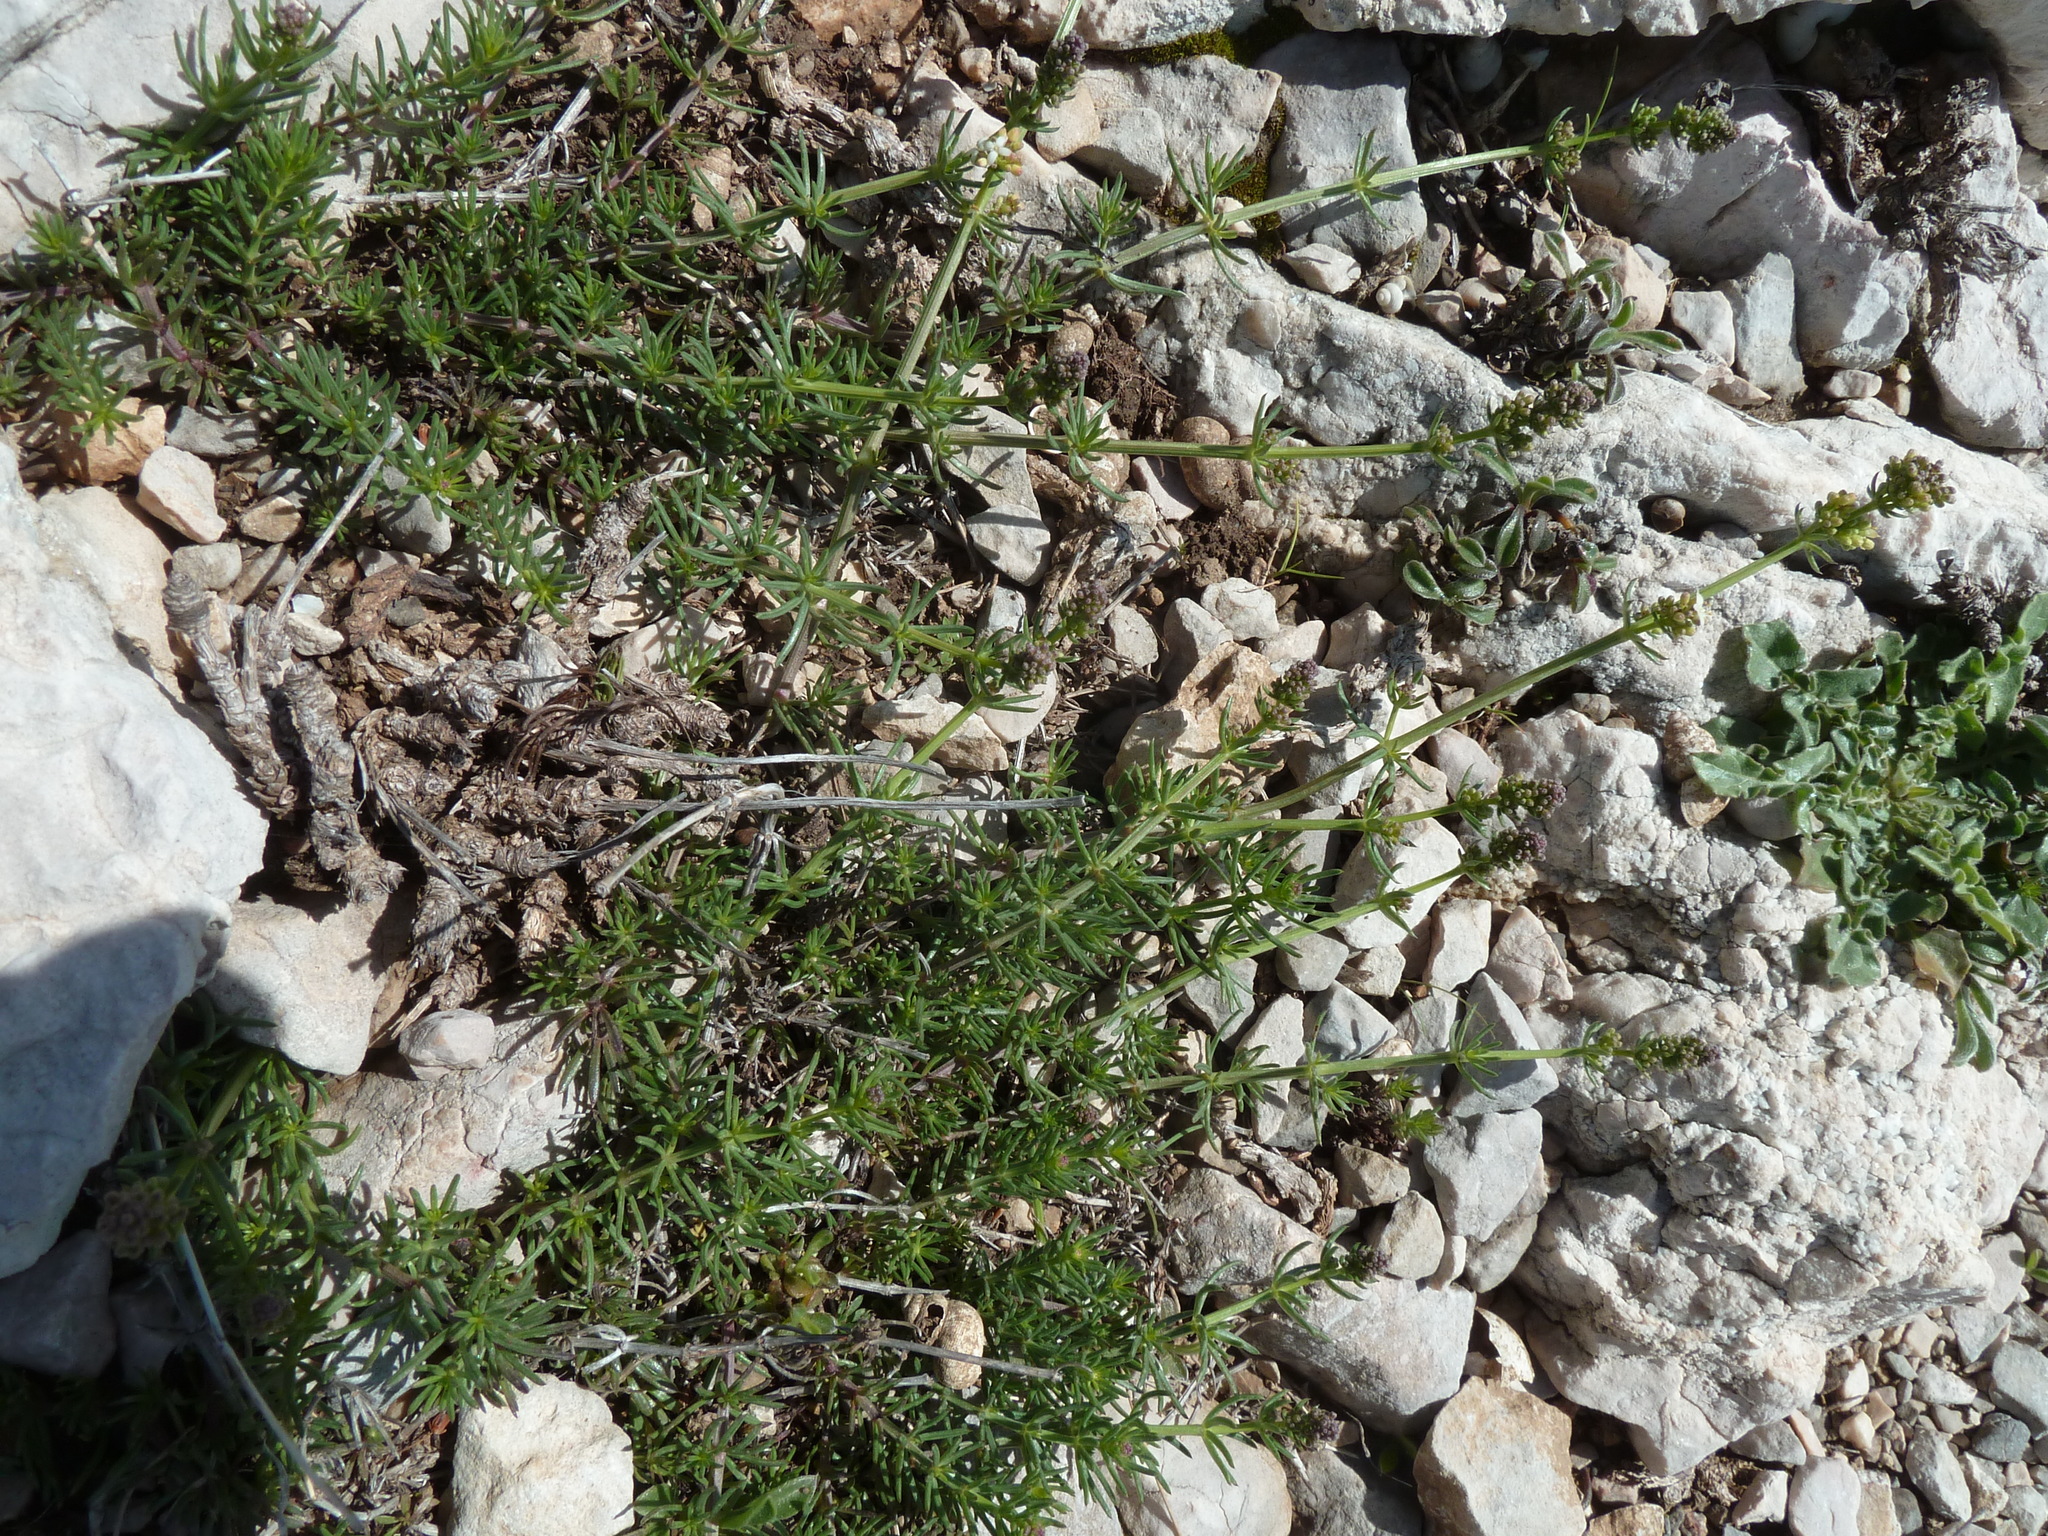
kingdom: Plantae
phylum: Tracheophyta
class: Magnoliopsida
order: Gentianales
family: Rubiaceae
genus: Galium
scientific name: Galium lucidum
